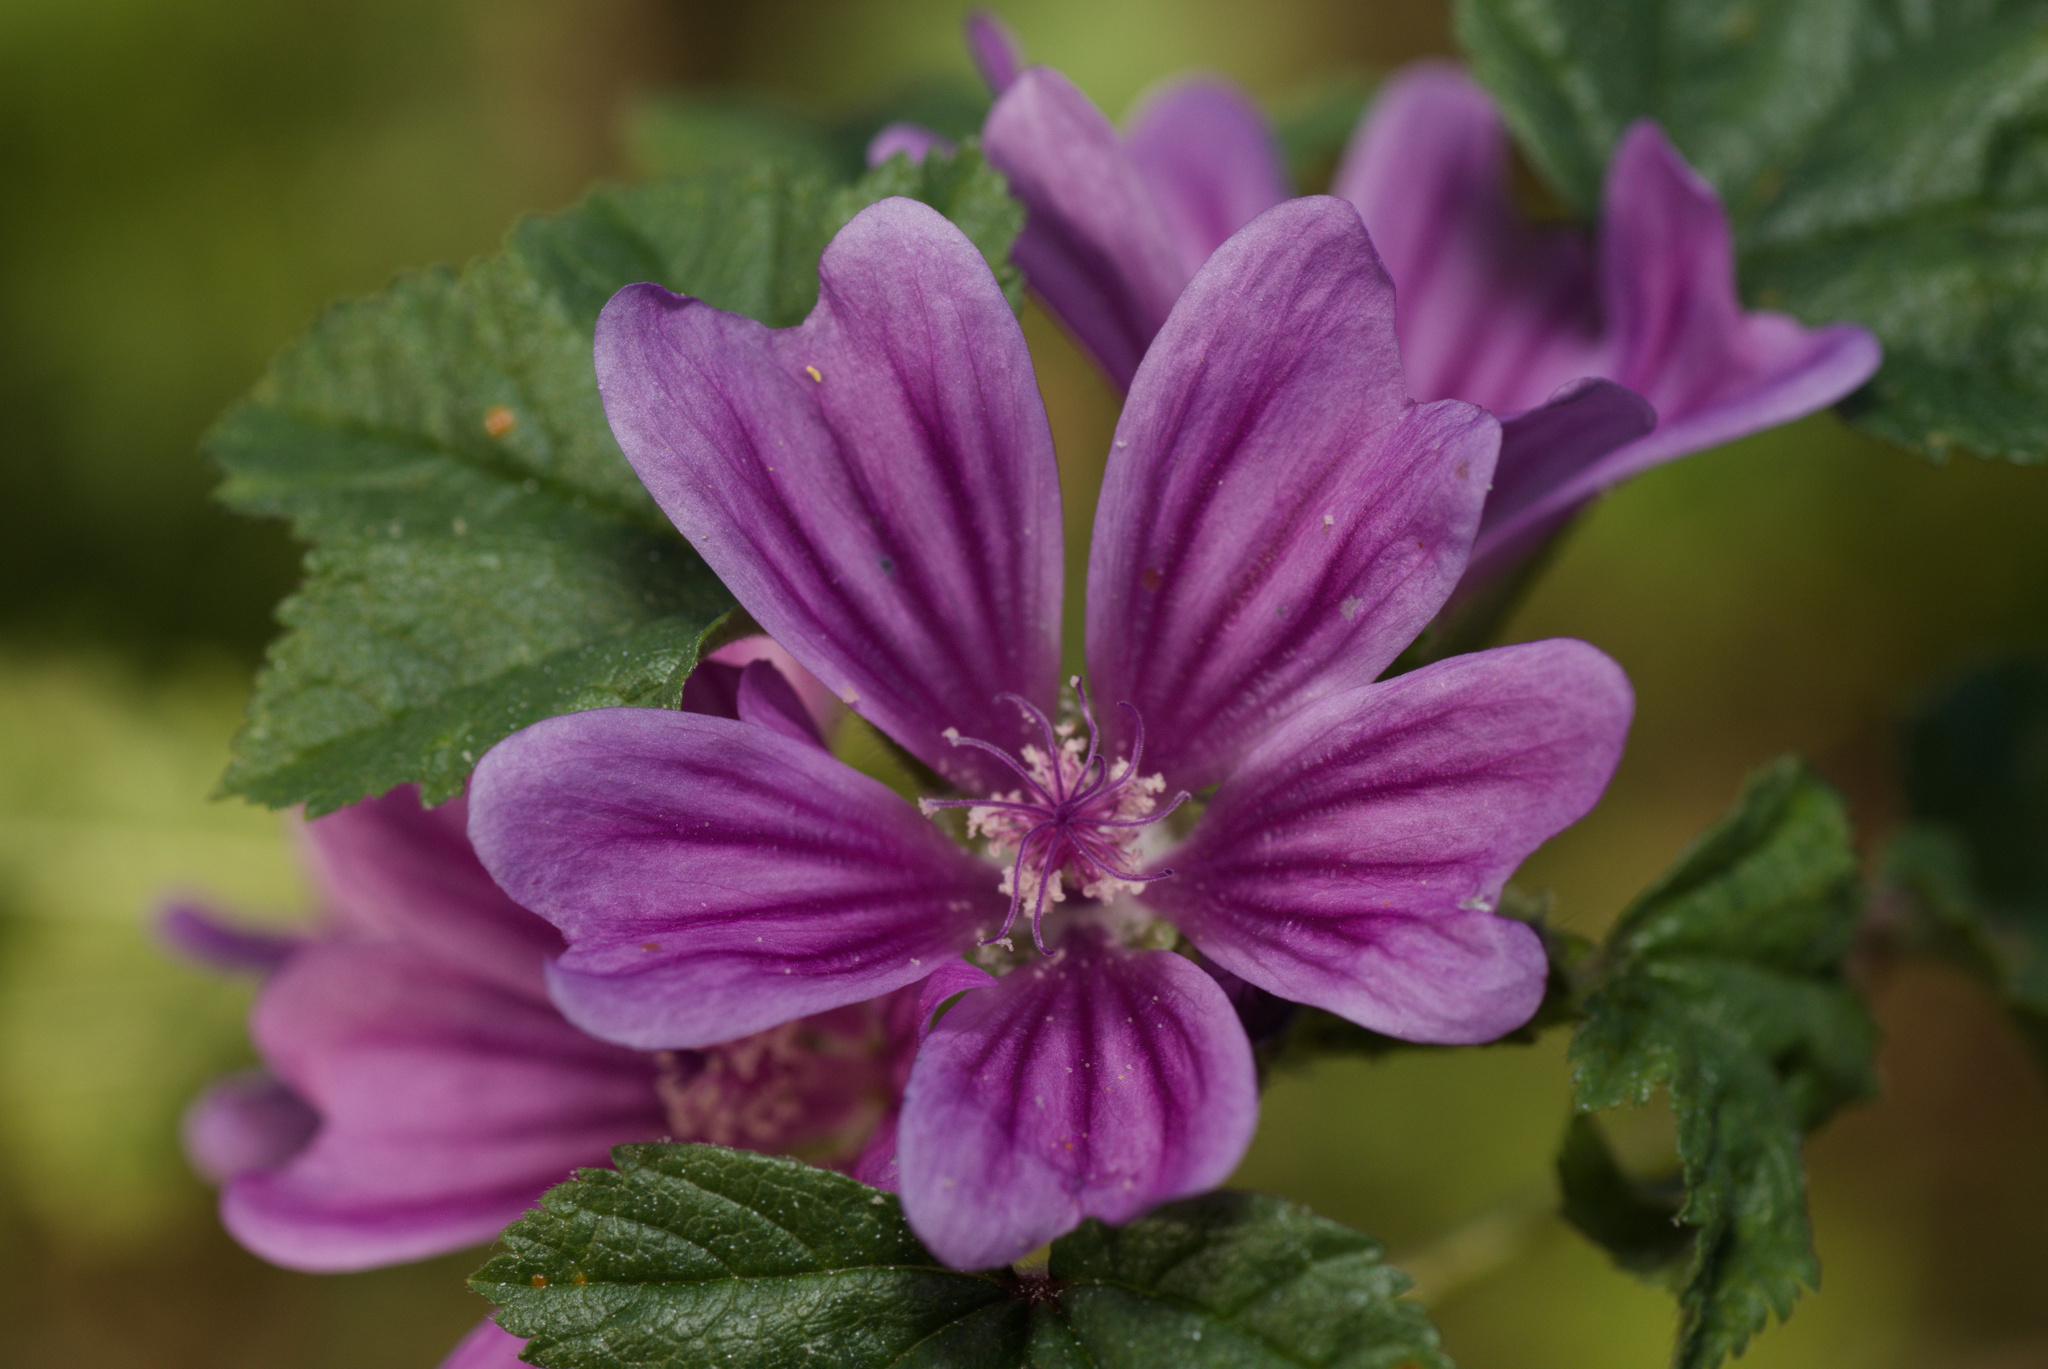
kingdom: Plantae
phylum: Tracheophyta
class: Magnoliopsida
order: Malvales
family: Malvaceae
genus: Malva
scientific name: Malva sylvestris
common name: Common mallow
